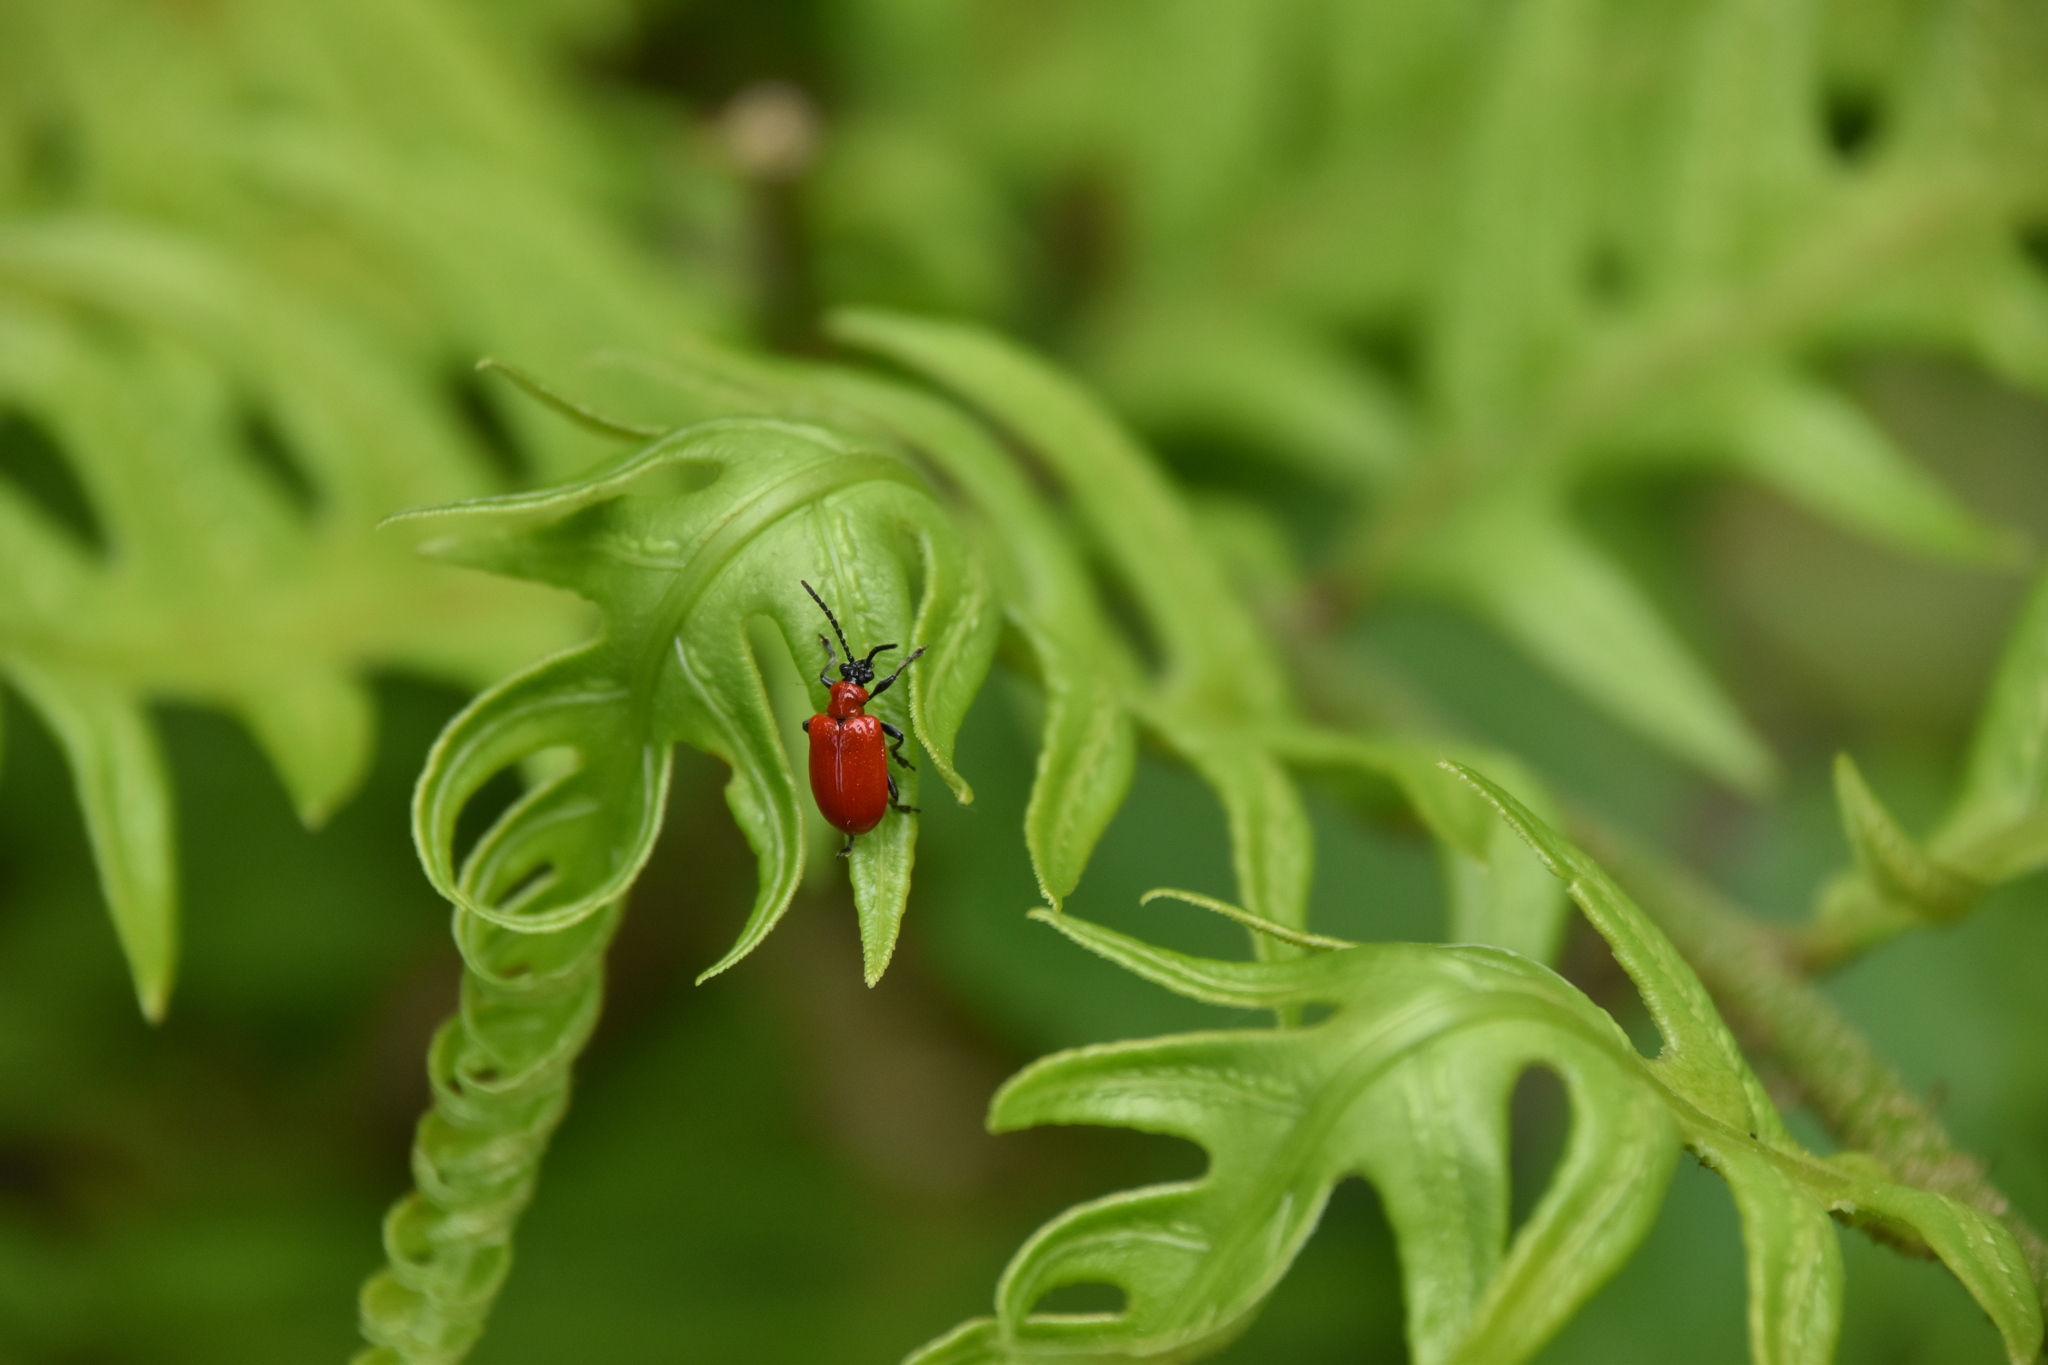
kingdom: Animalia
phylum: Arthropoda
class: Insecta
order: Coleoptera
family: Chrysomelidae
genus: Lilioceris
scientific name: Lilioceris lilii
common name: Lily beetle
